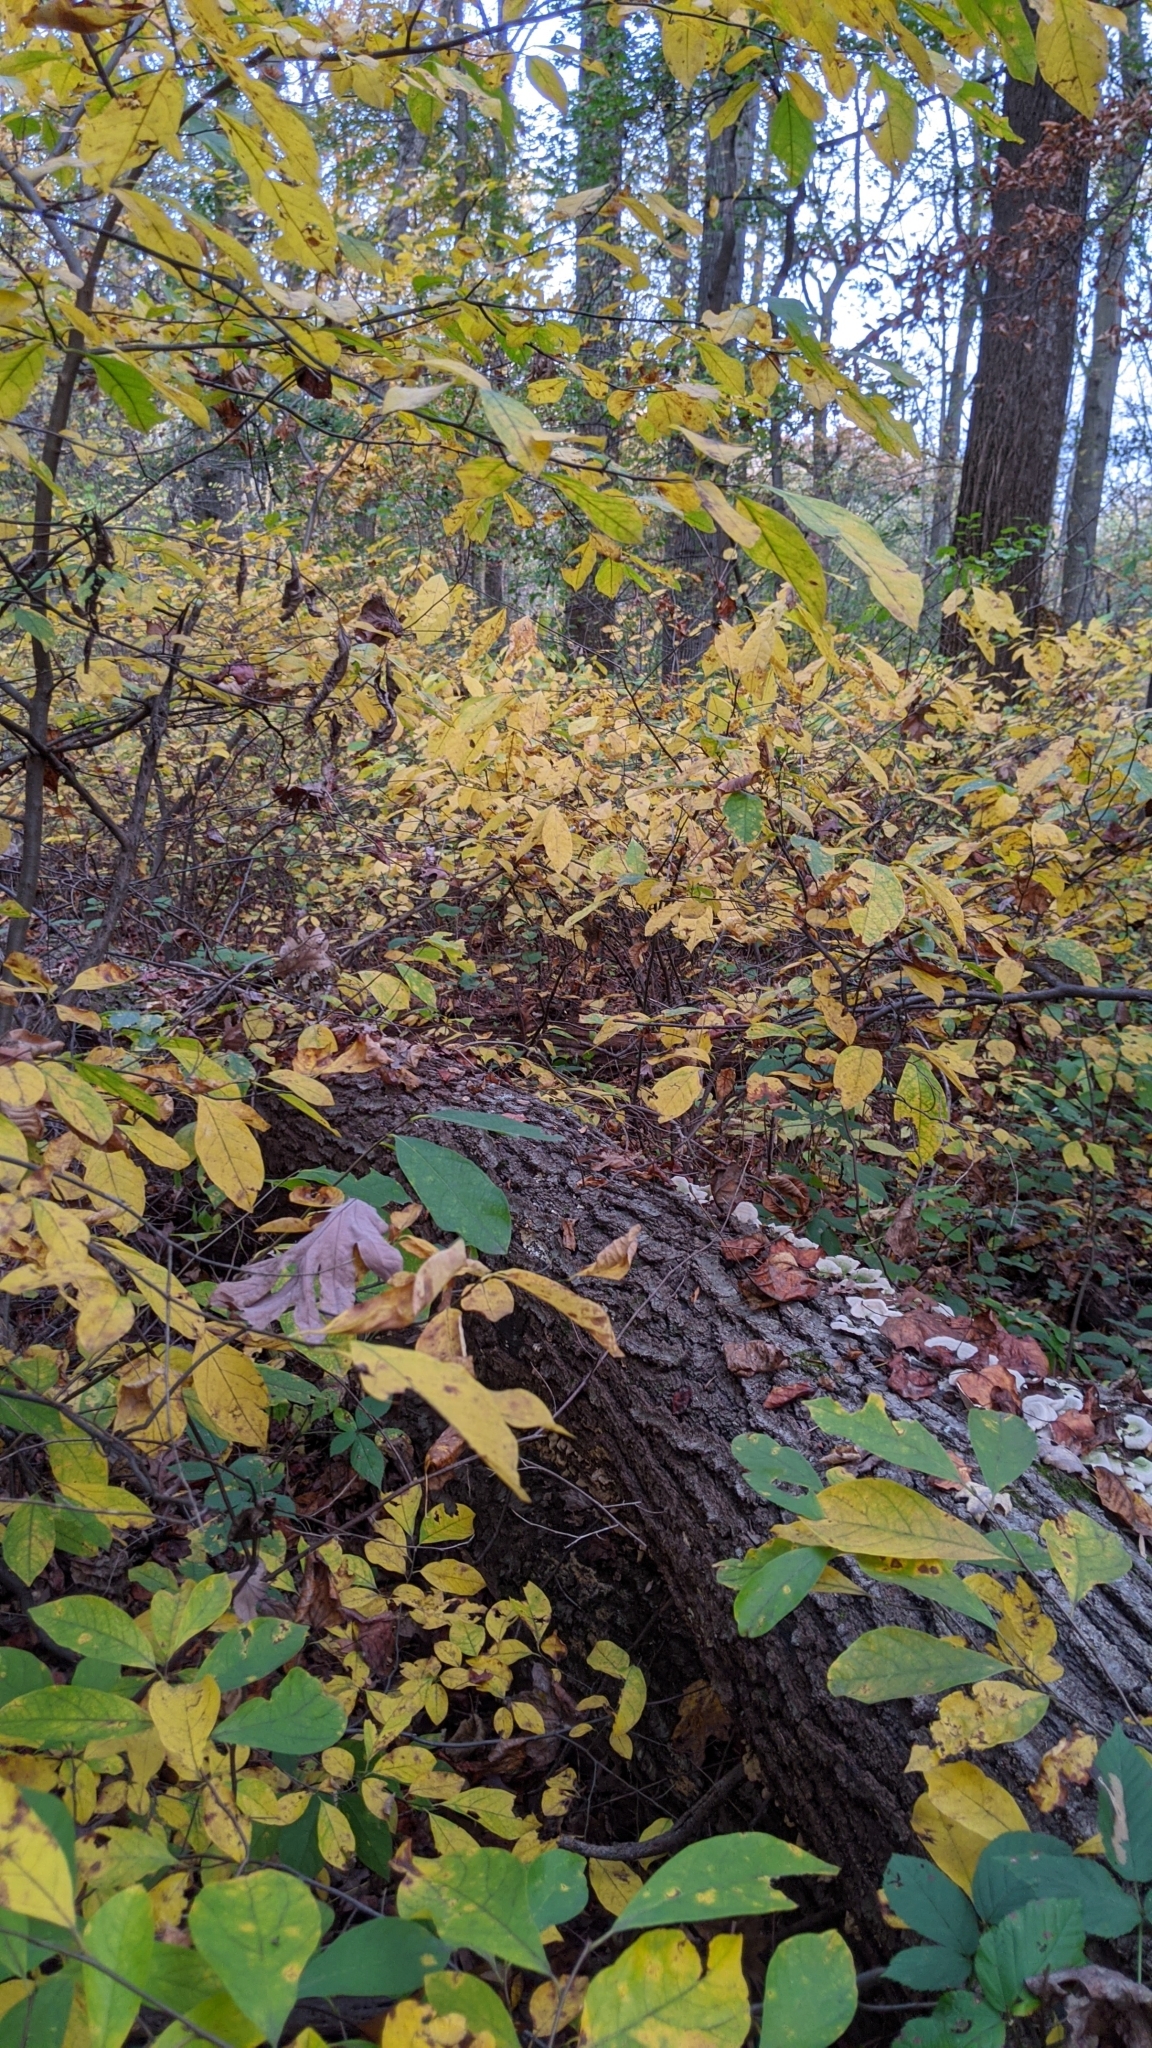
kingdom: Plantae
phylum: Tracheophyta
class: Magnoliopsida
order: Laurales
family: Lauraceae
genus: Lindera
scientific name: Lindera benzoin
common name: Spicebush
